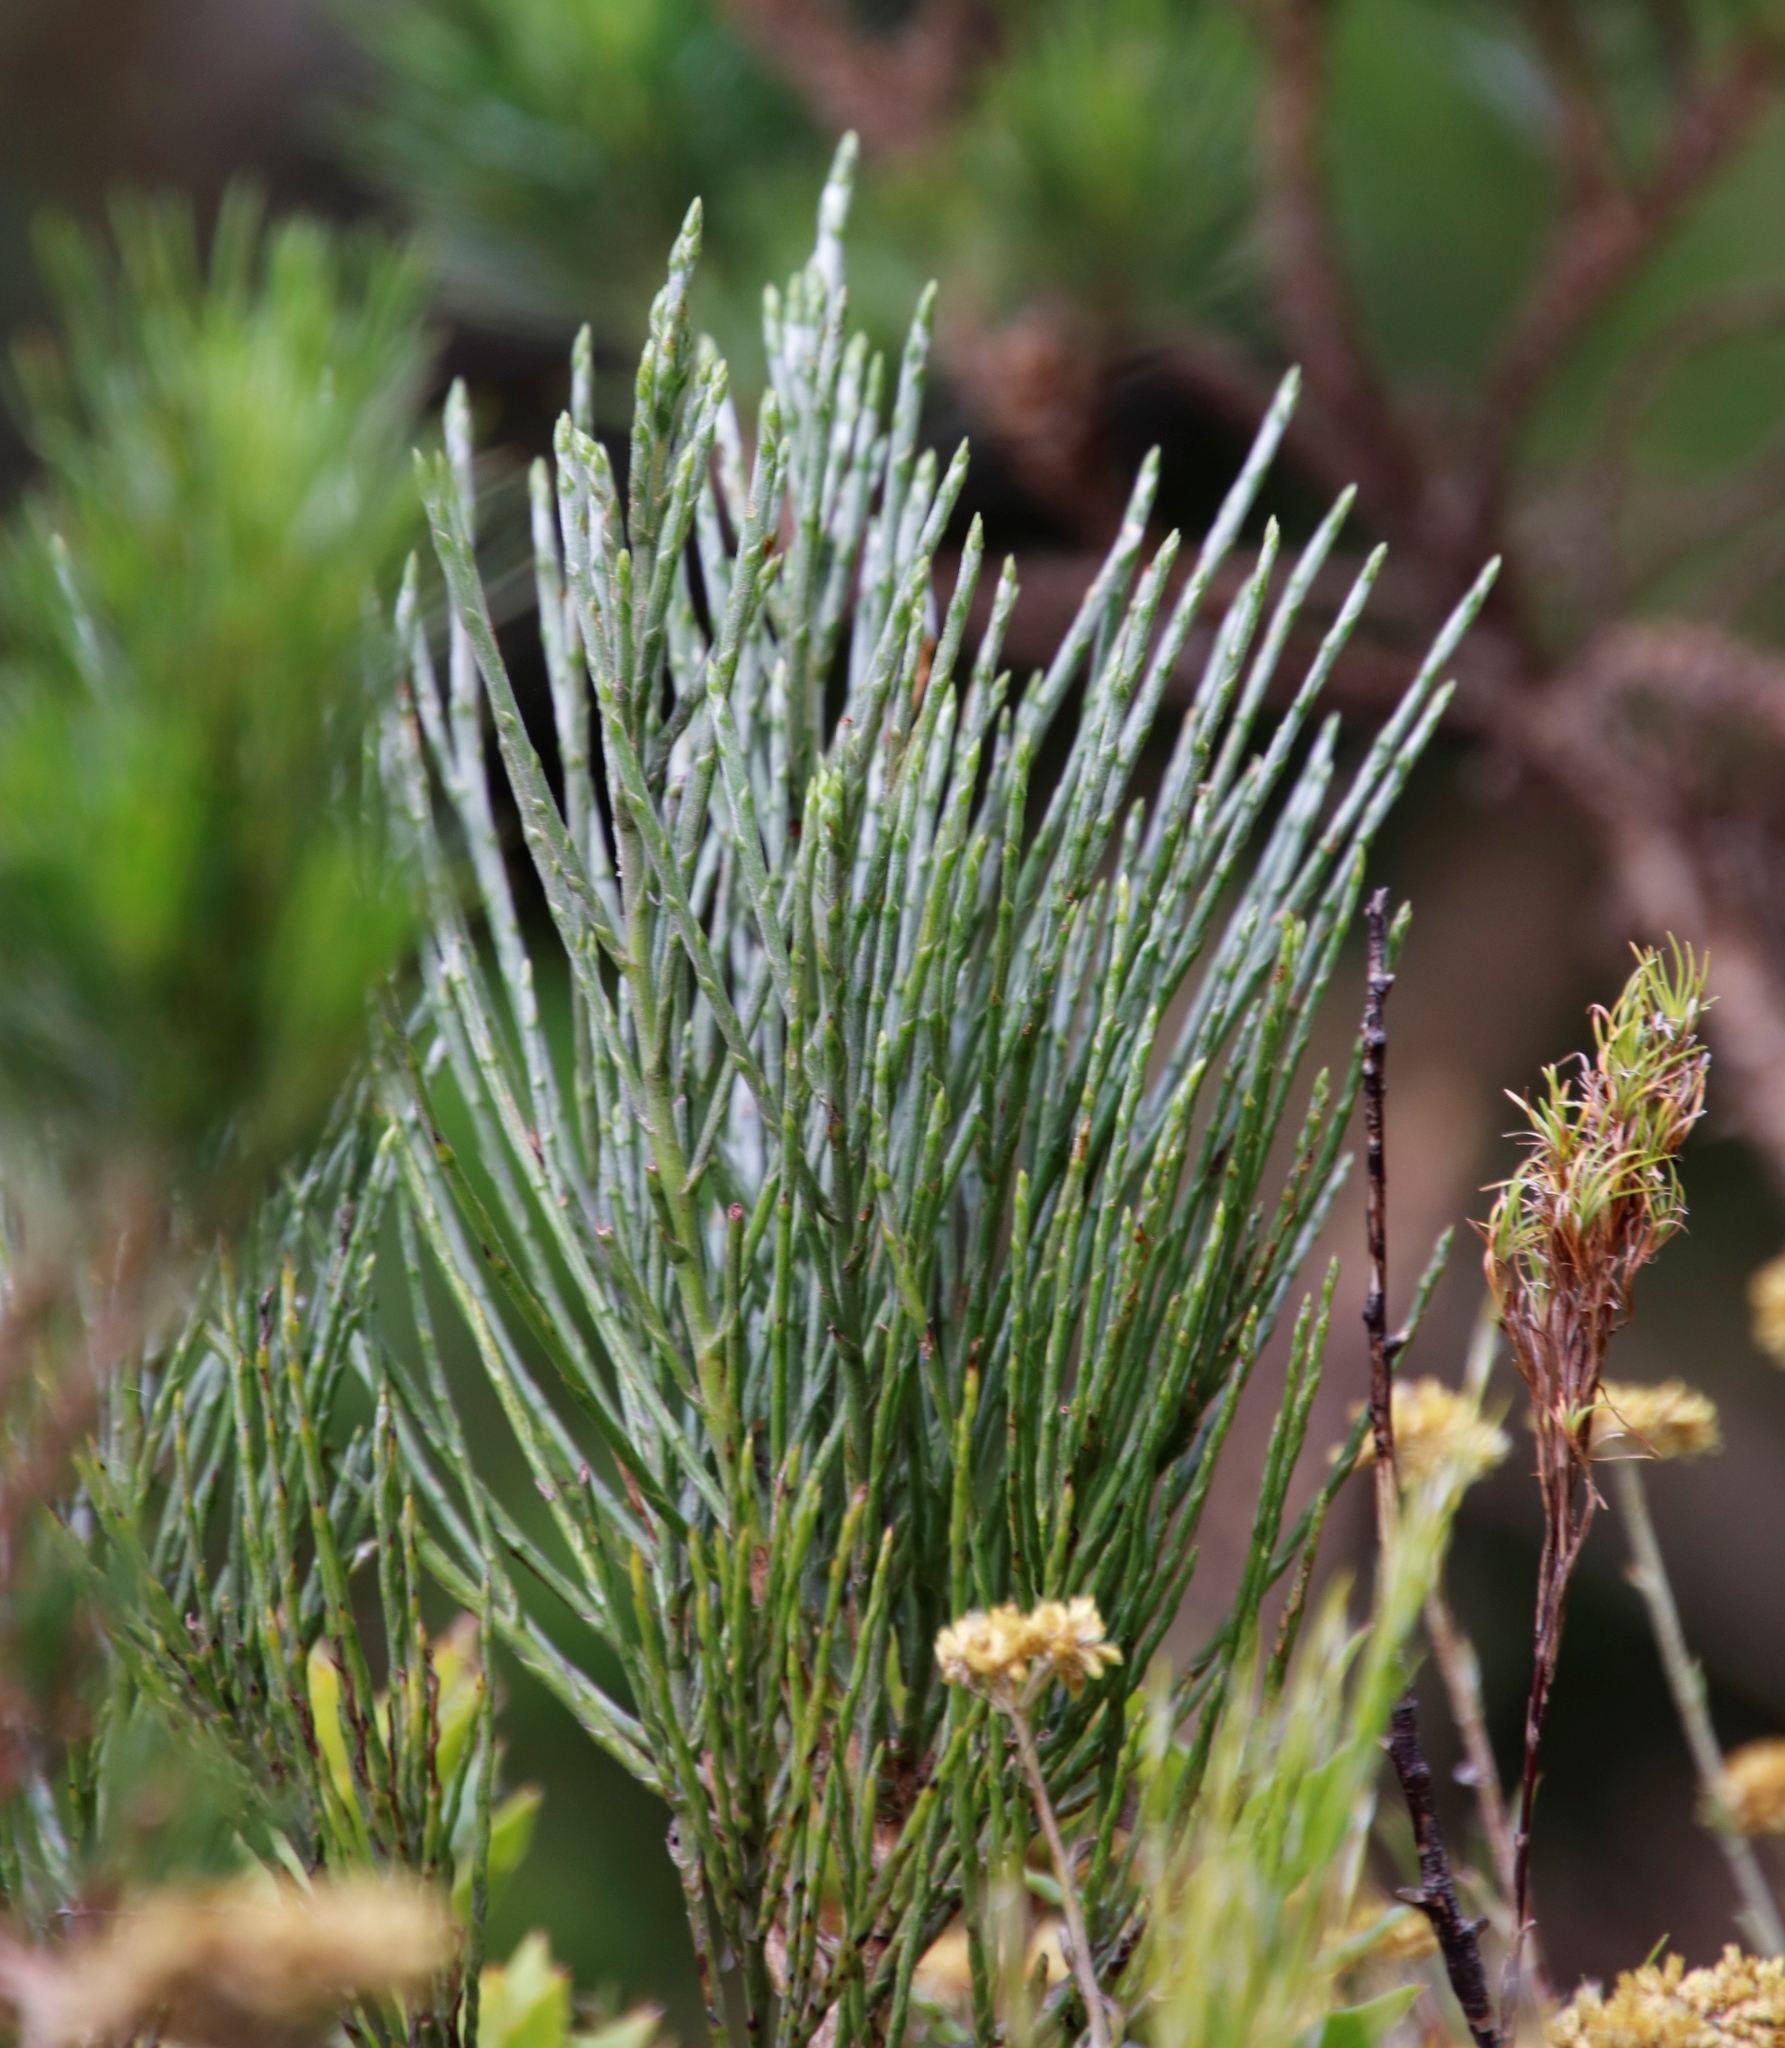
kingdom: Plantae
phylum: Tracheophyta
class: Magnoliopsida
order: Fabales
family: Fabaceae
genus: Psoralea
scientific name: Psoralea congesta
